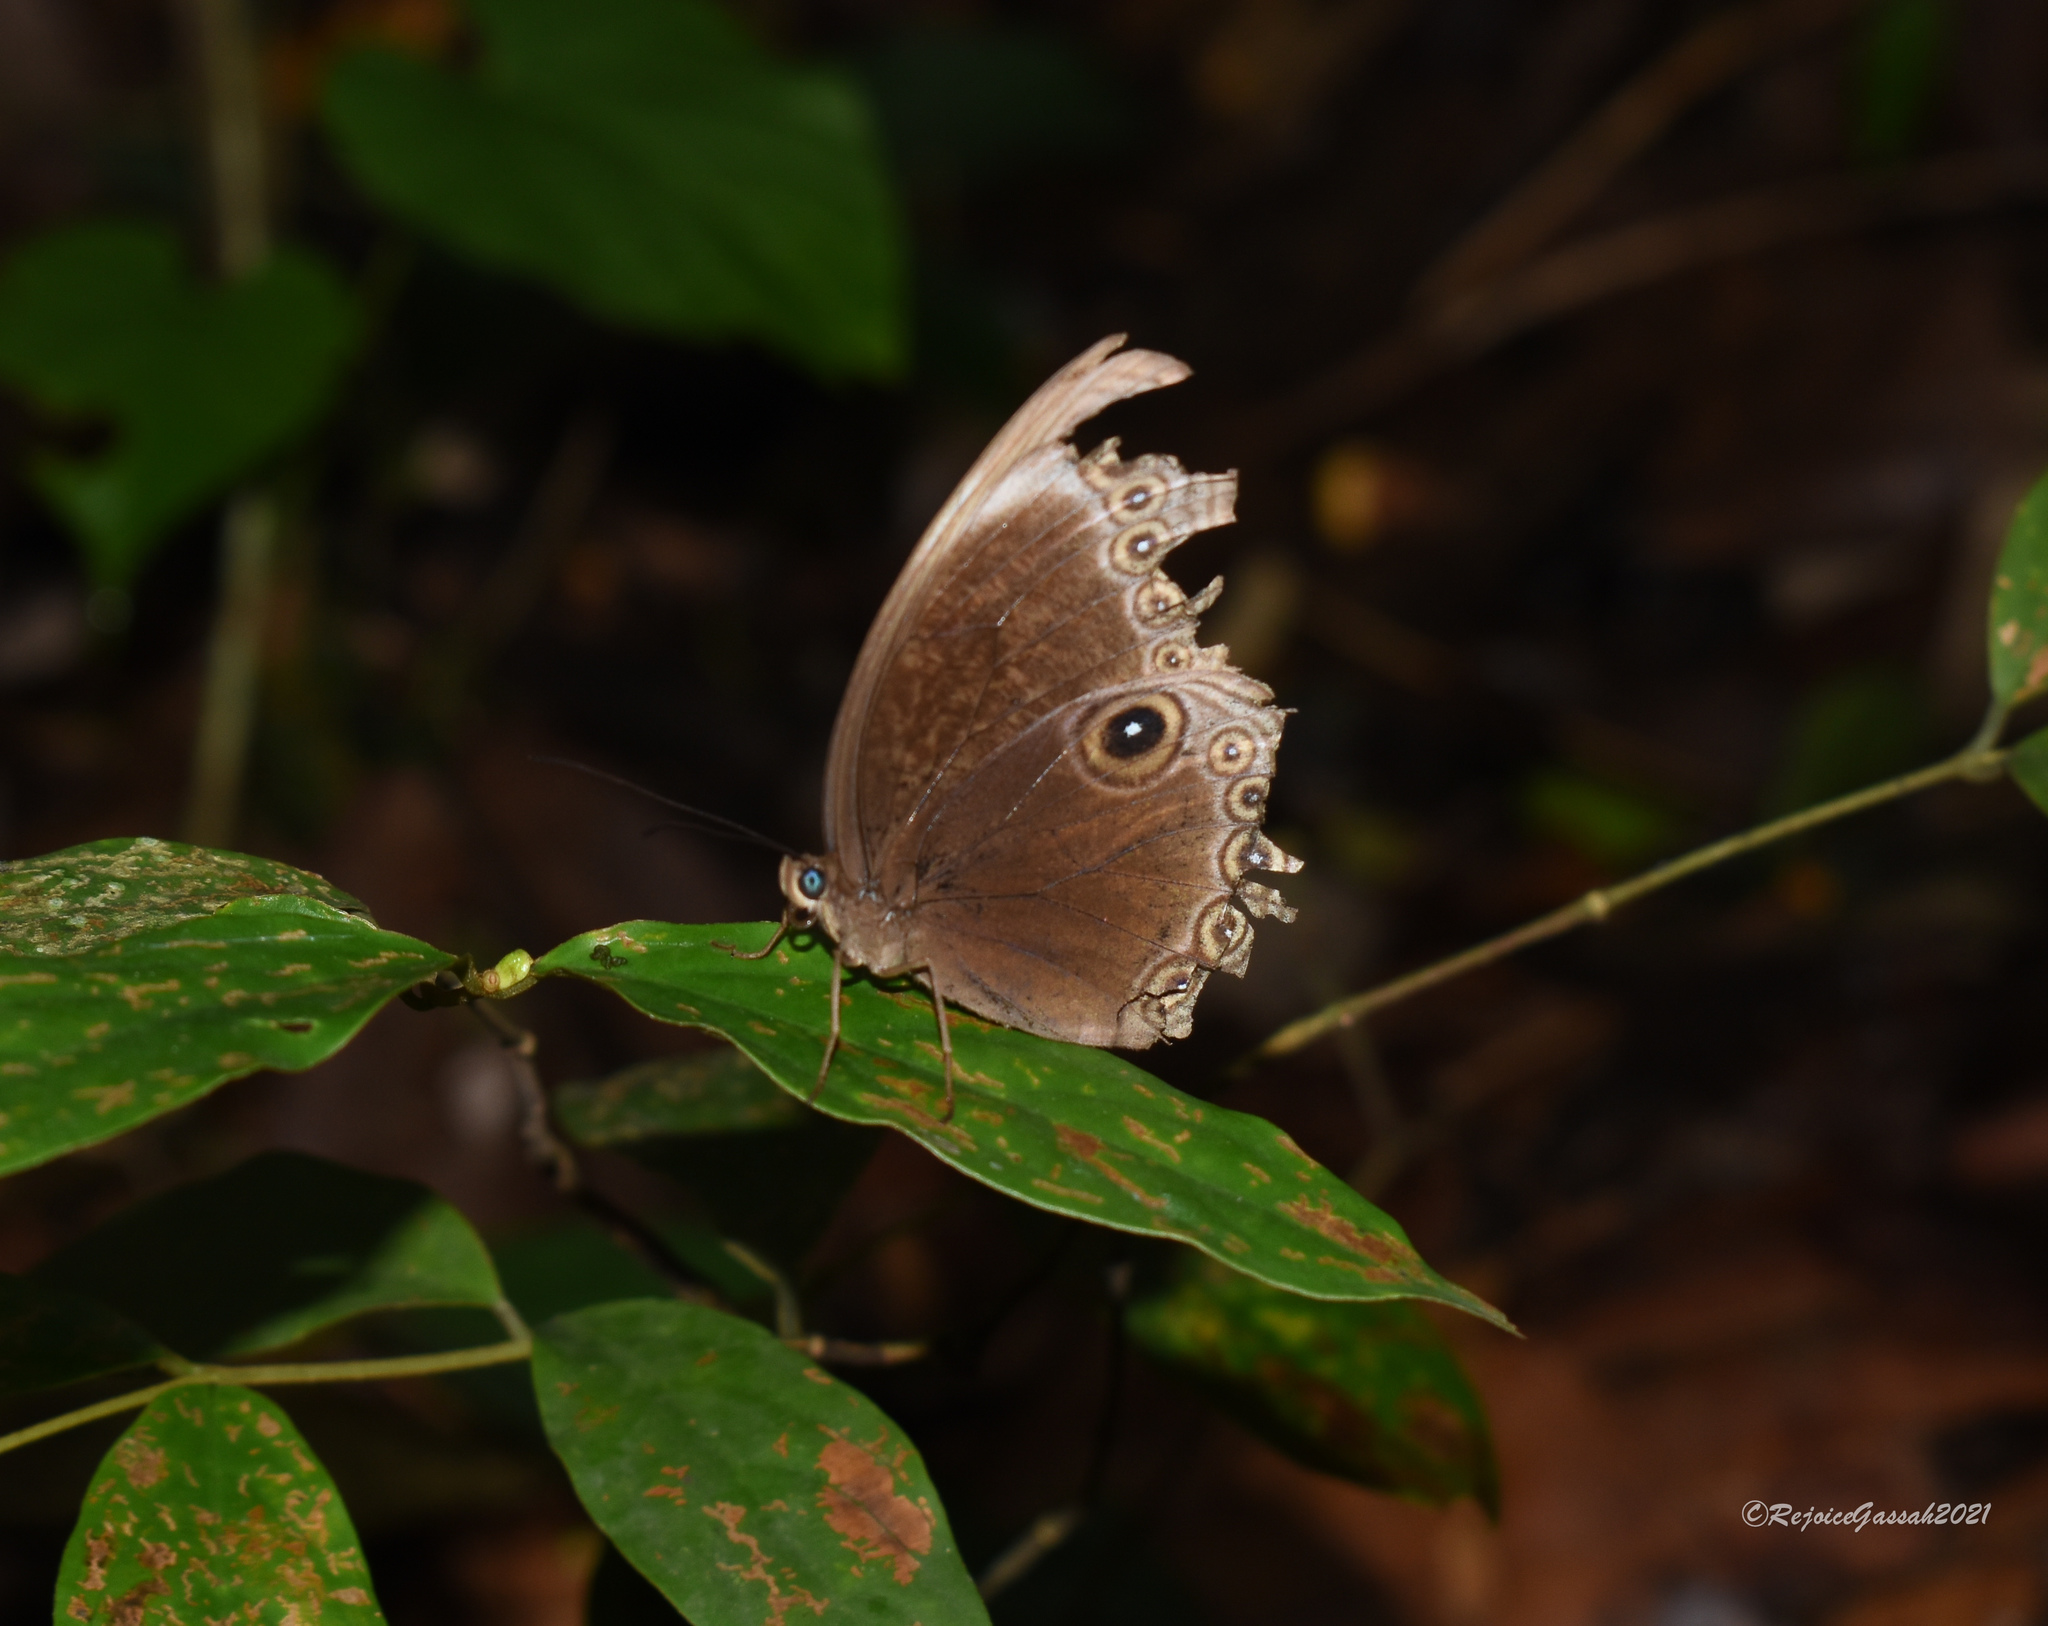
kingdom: Animalia
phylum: Arthropoda
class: Insecta
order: Lepidoptera
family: Nymphalidae
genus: Ethope
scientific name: Ethope himachala
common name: Dusky diadem
